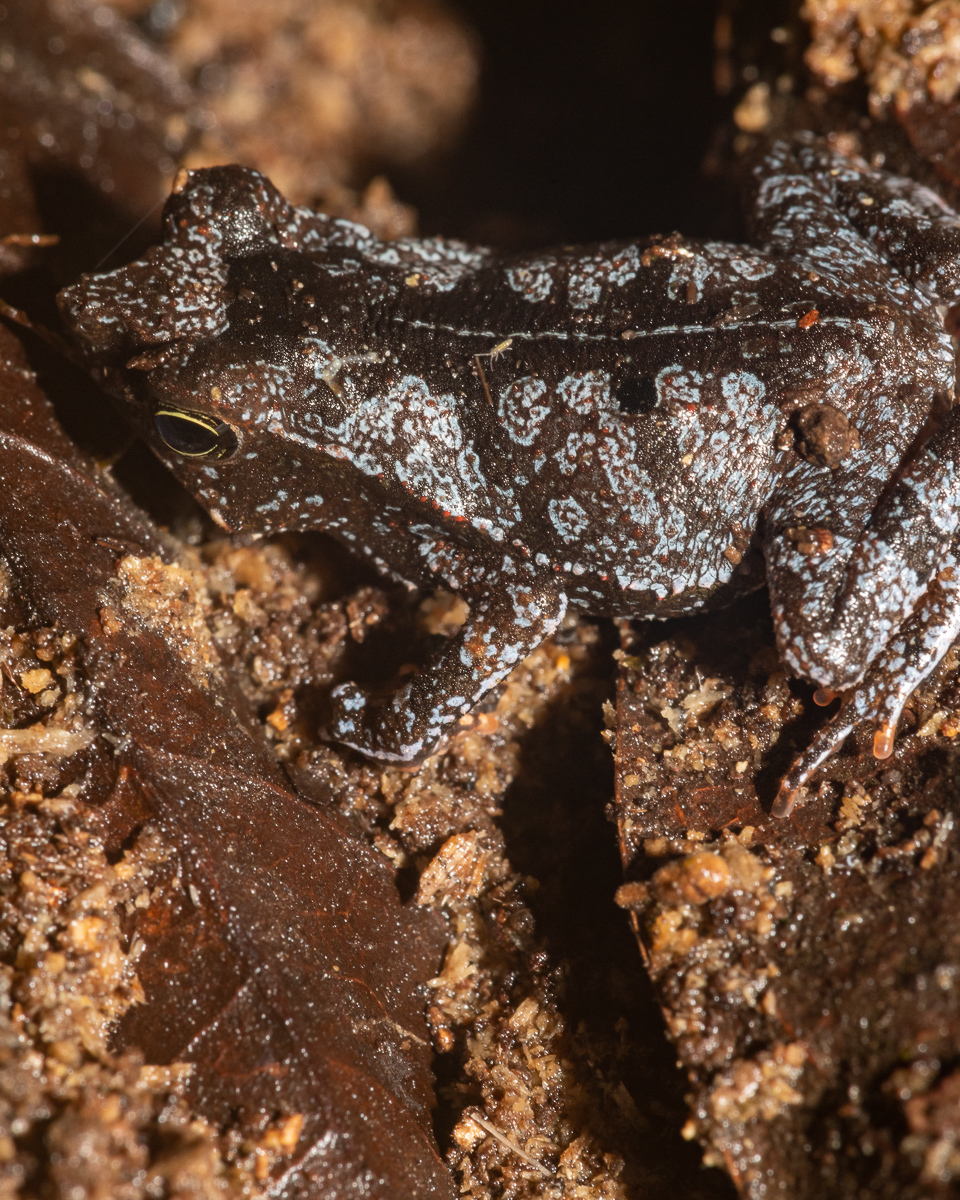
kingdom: Animalia
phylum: Chordata
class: Amphibia
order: Anura
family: Bufonidae
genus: Rhinella
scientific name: Rhinella margaritifera
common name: Mitred toad
